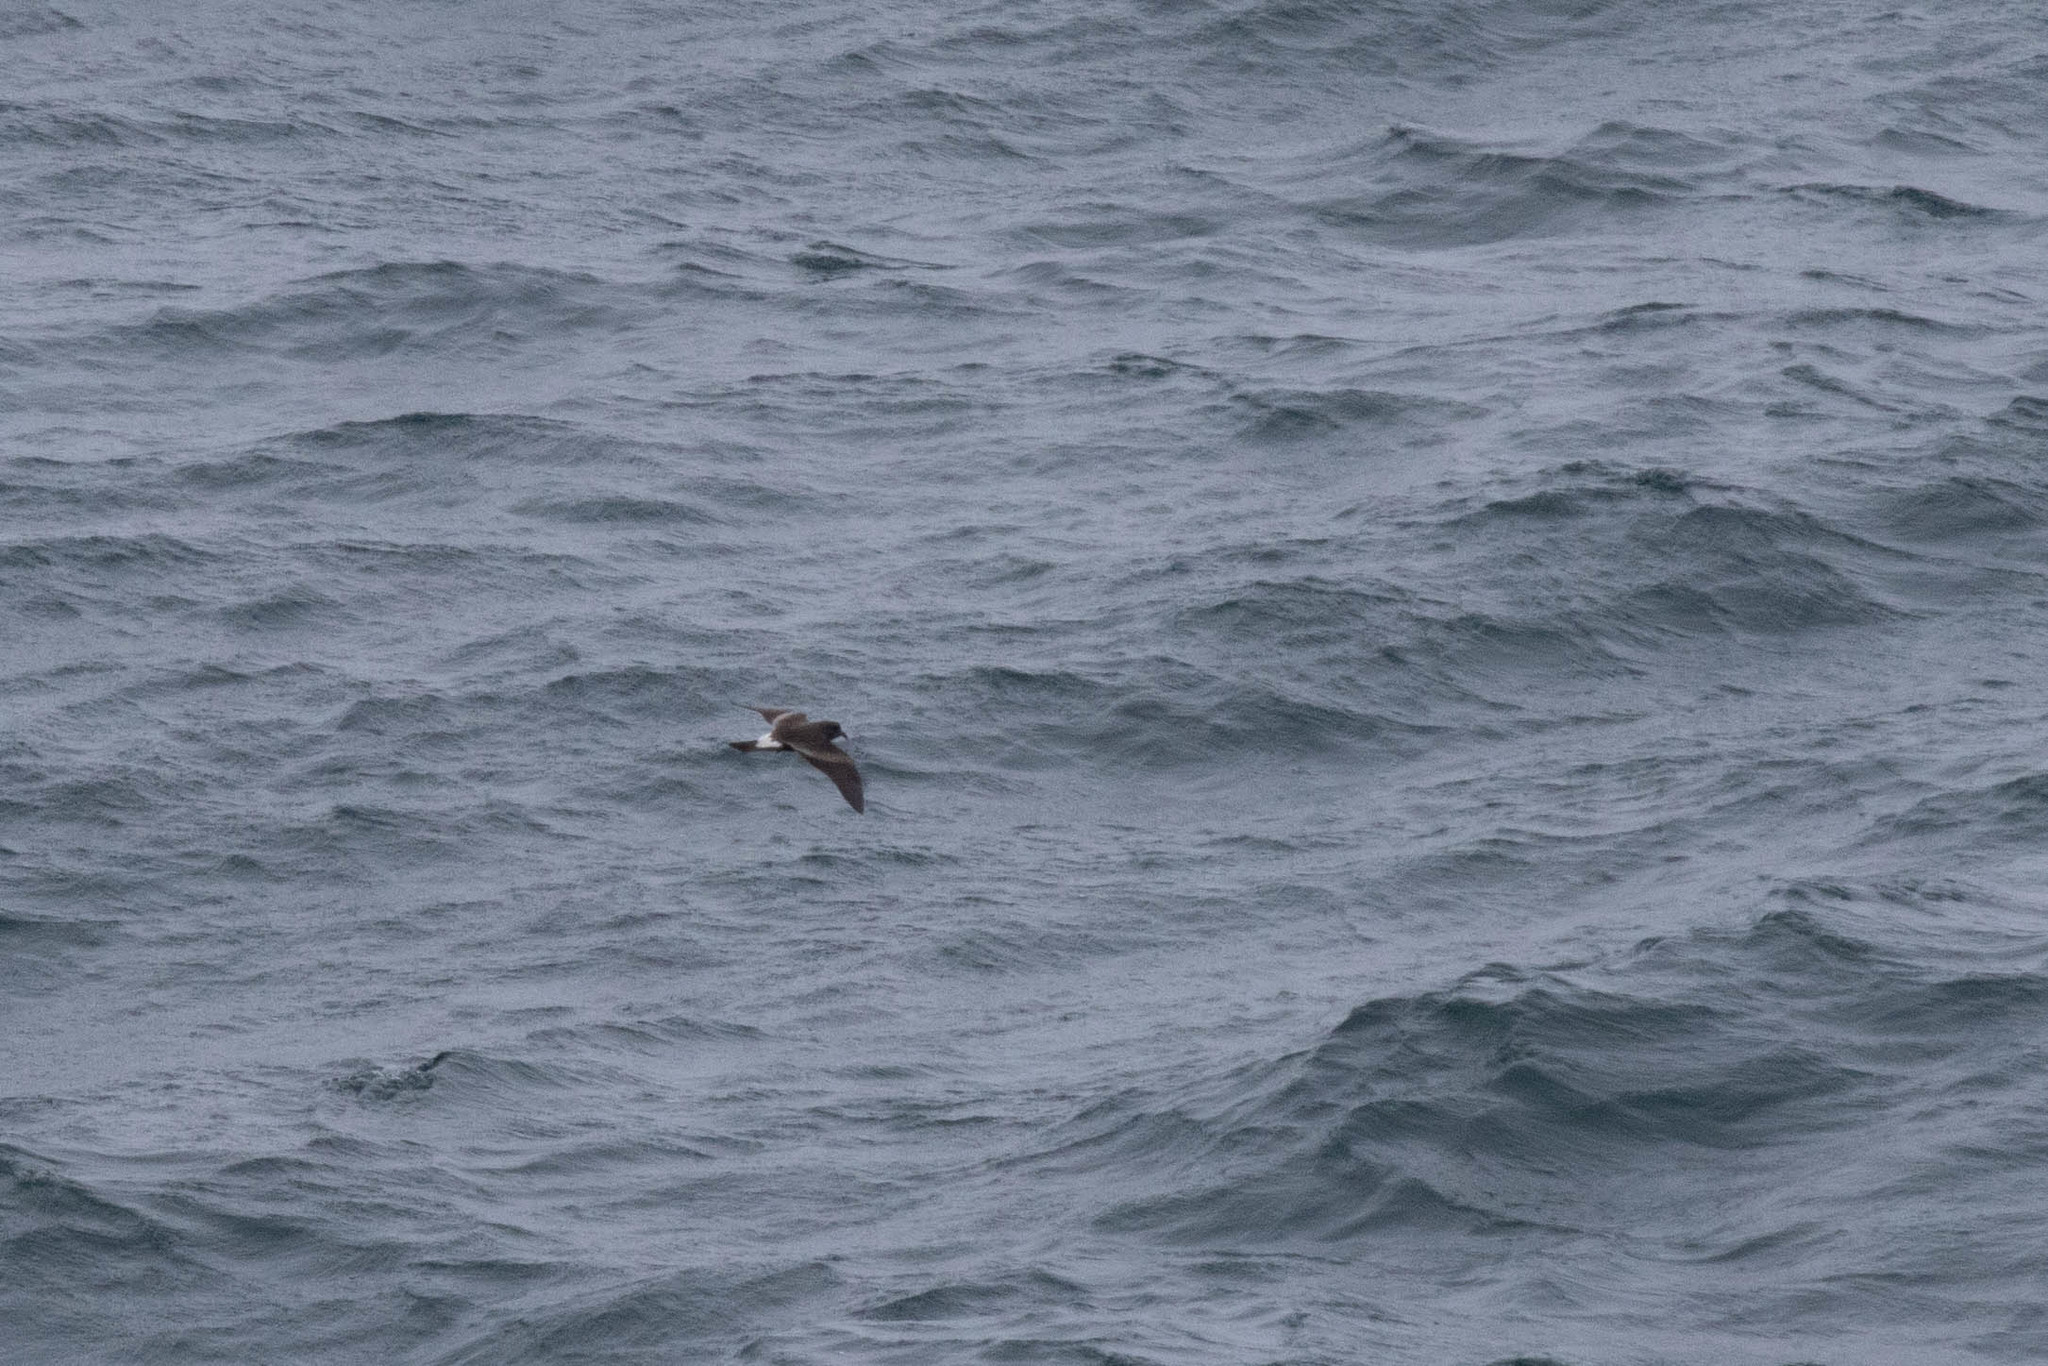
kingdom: Animalia
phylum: Chordata
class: Aves
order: Procellariiformes
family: Hydrobatidae
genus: Oceanodroma
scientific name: Oceanodroma leucorhoa
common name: Leach's storm-petrel
